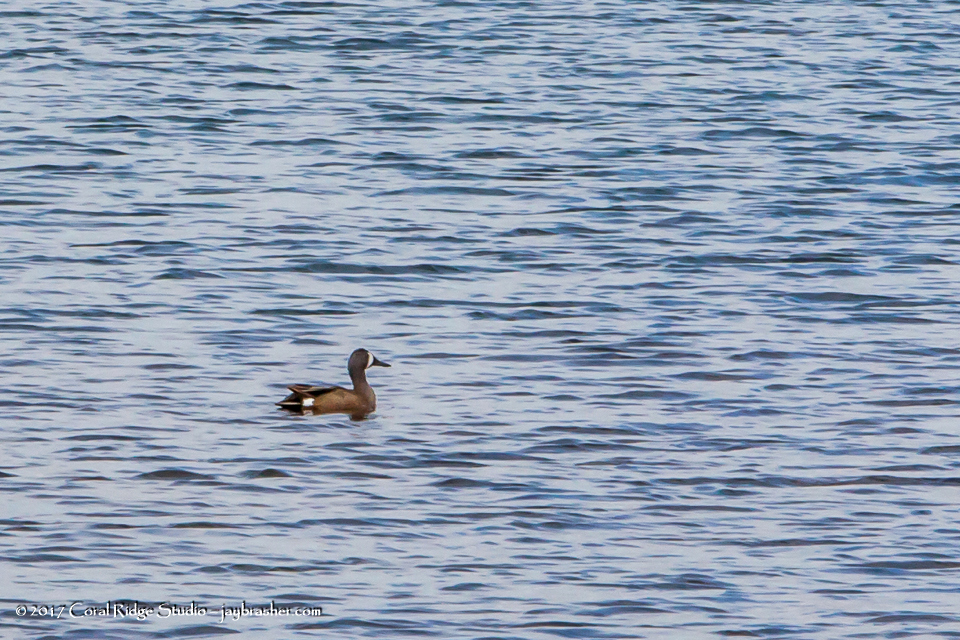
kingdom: Animalia
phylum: Chordata
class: Aves
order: Anseriformes
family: Anatidae
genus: Spatula
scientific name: Spatula discors
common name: Blue-winged teal
